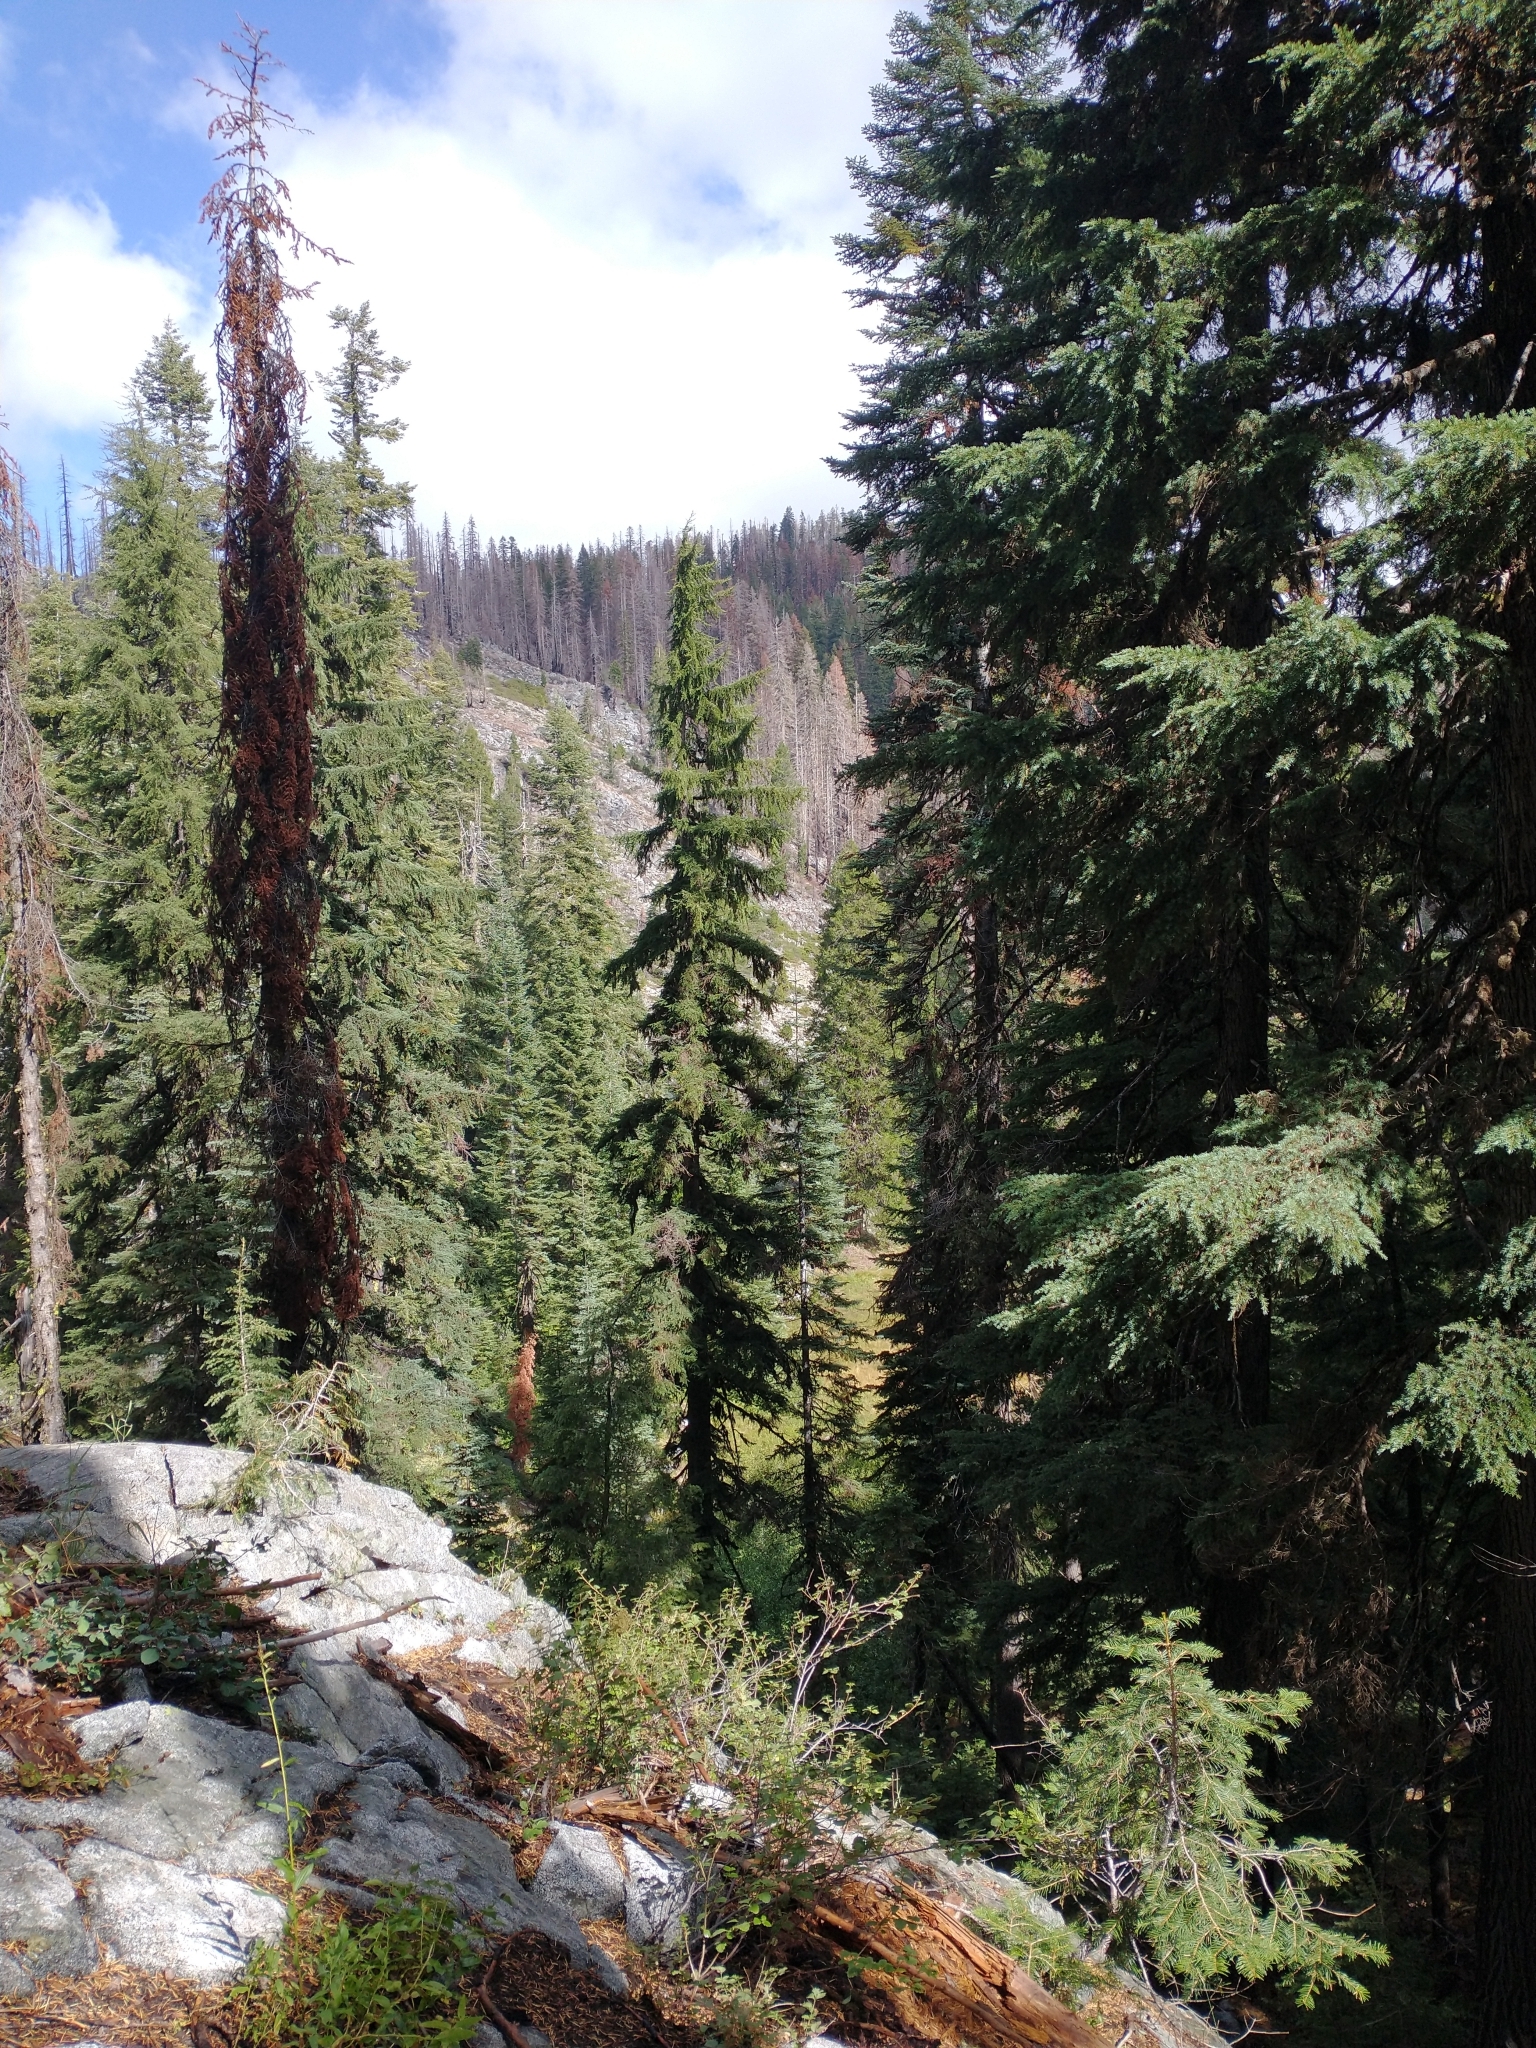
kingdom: Plantae
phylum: Tracheophyta
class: Pinopsida
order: Pinales
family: Pinaceae
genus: Tsuga
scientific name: Tsuga mertensiana
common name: Mountain hemlock
